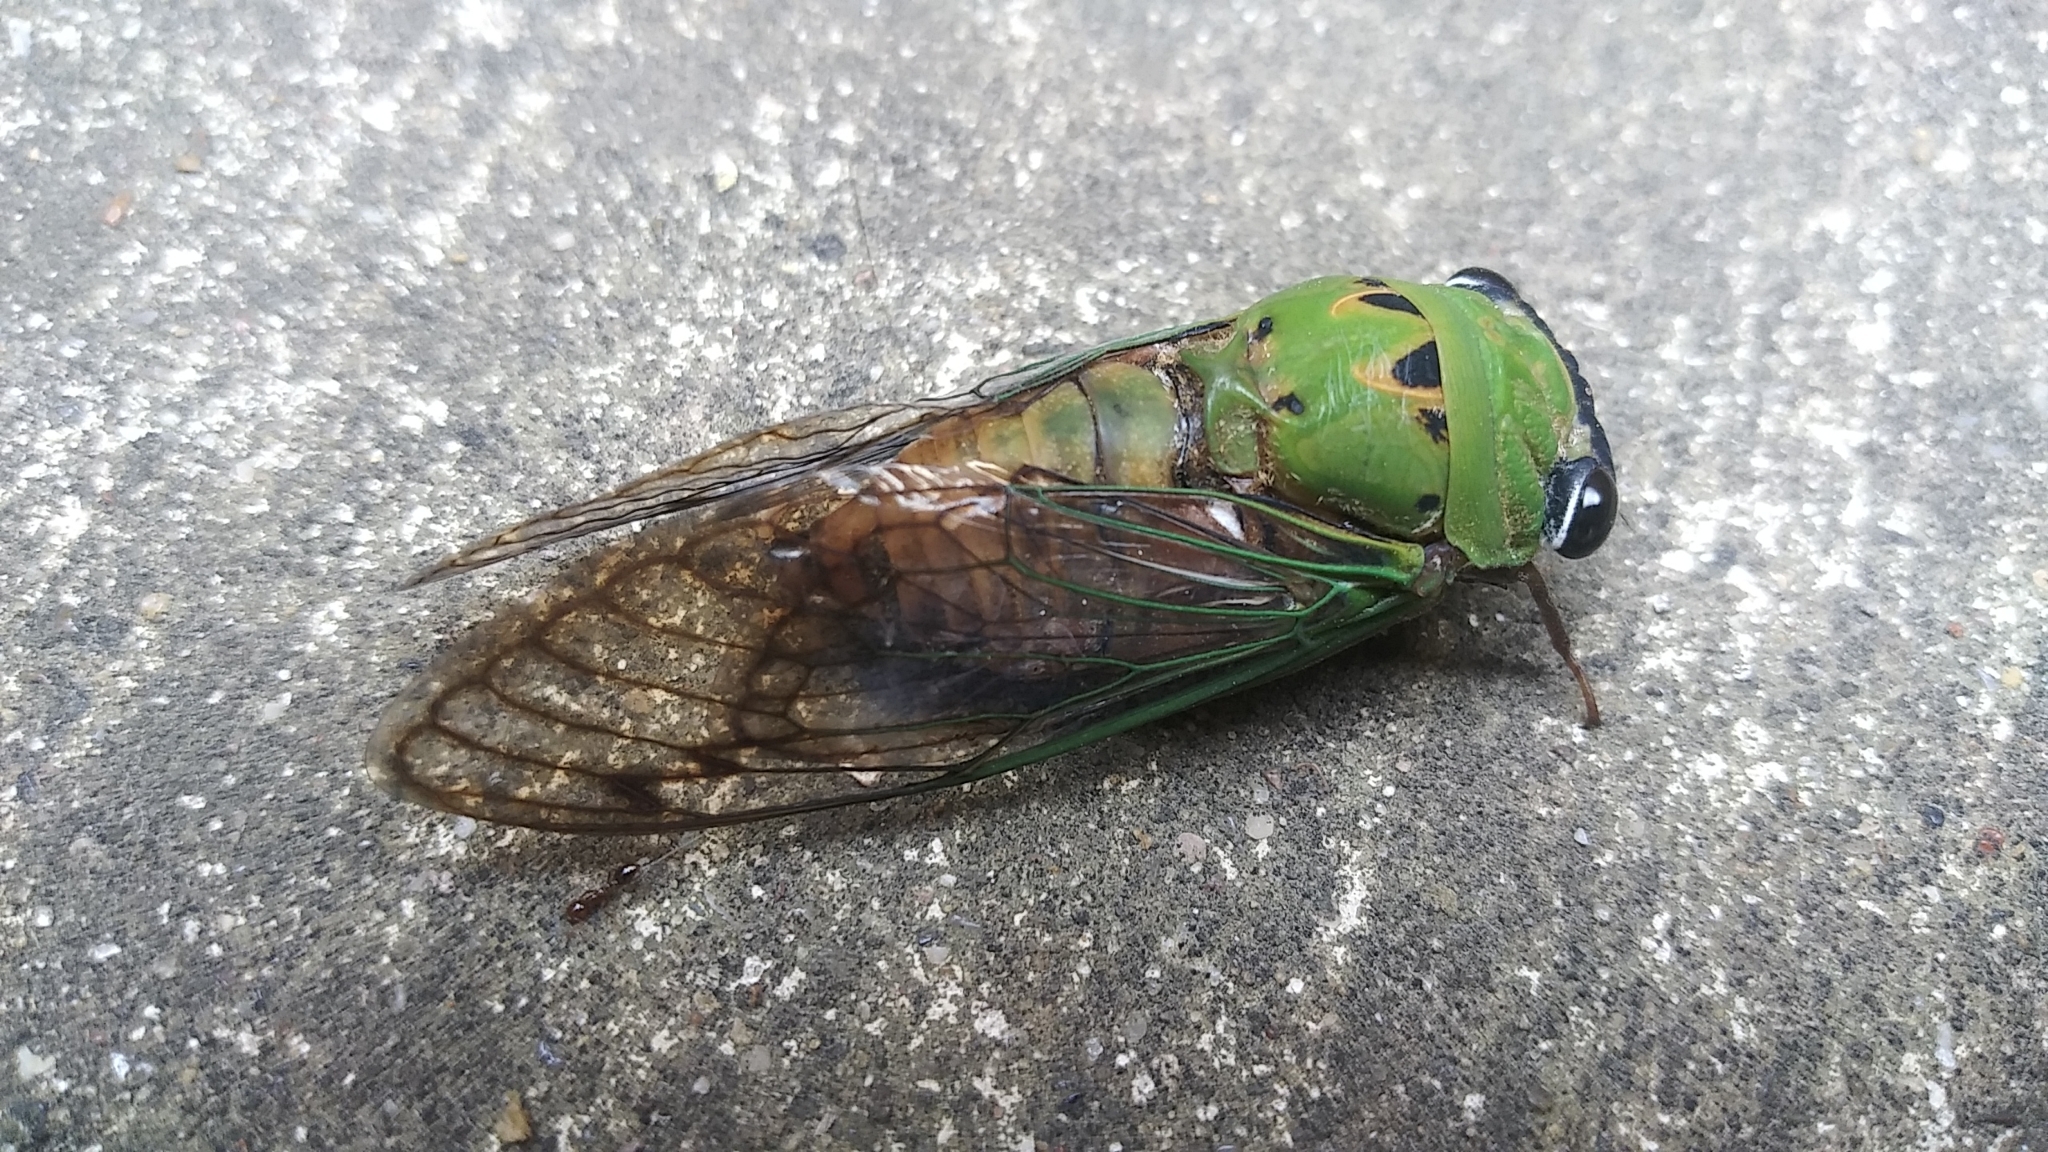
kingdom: Animalia
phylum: Arthropoda
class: Insecta
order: Hemiptera
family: Cicadidae
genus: Neotibicen
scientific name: Neotibicen superbus
